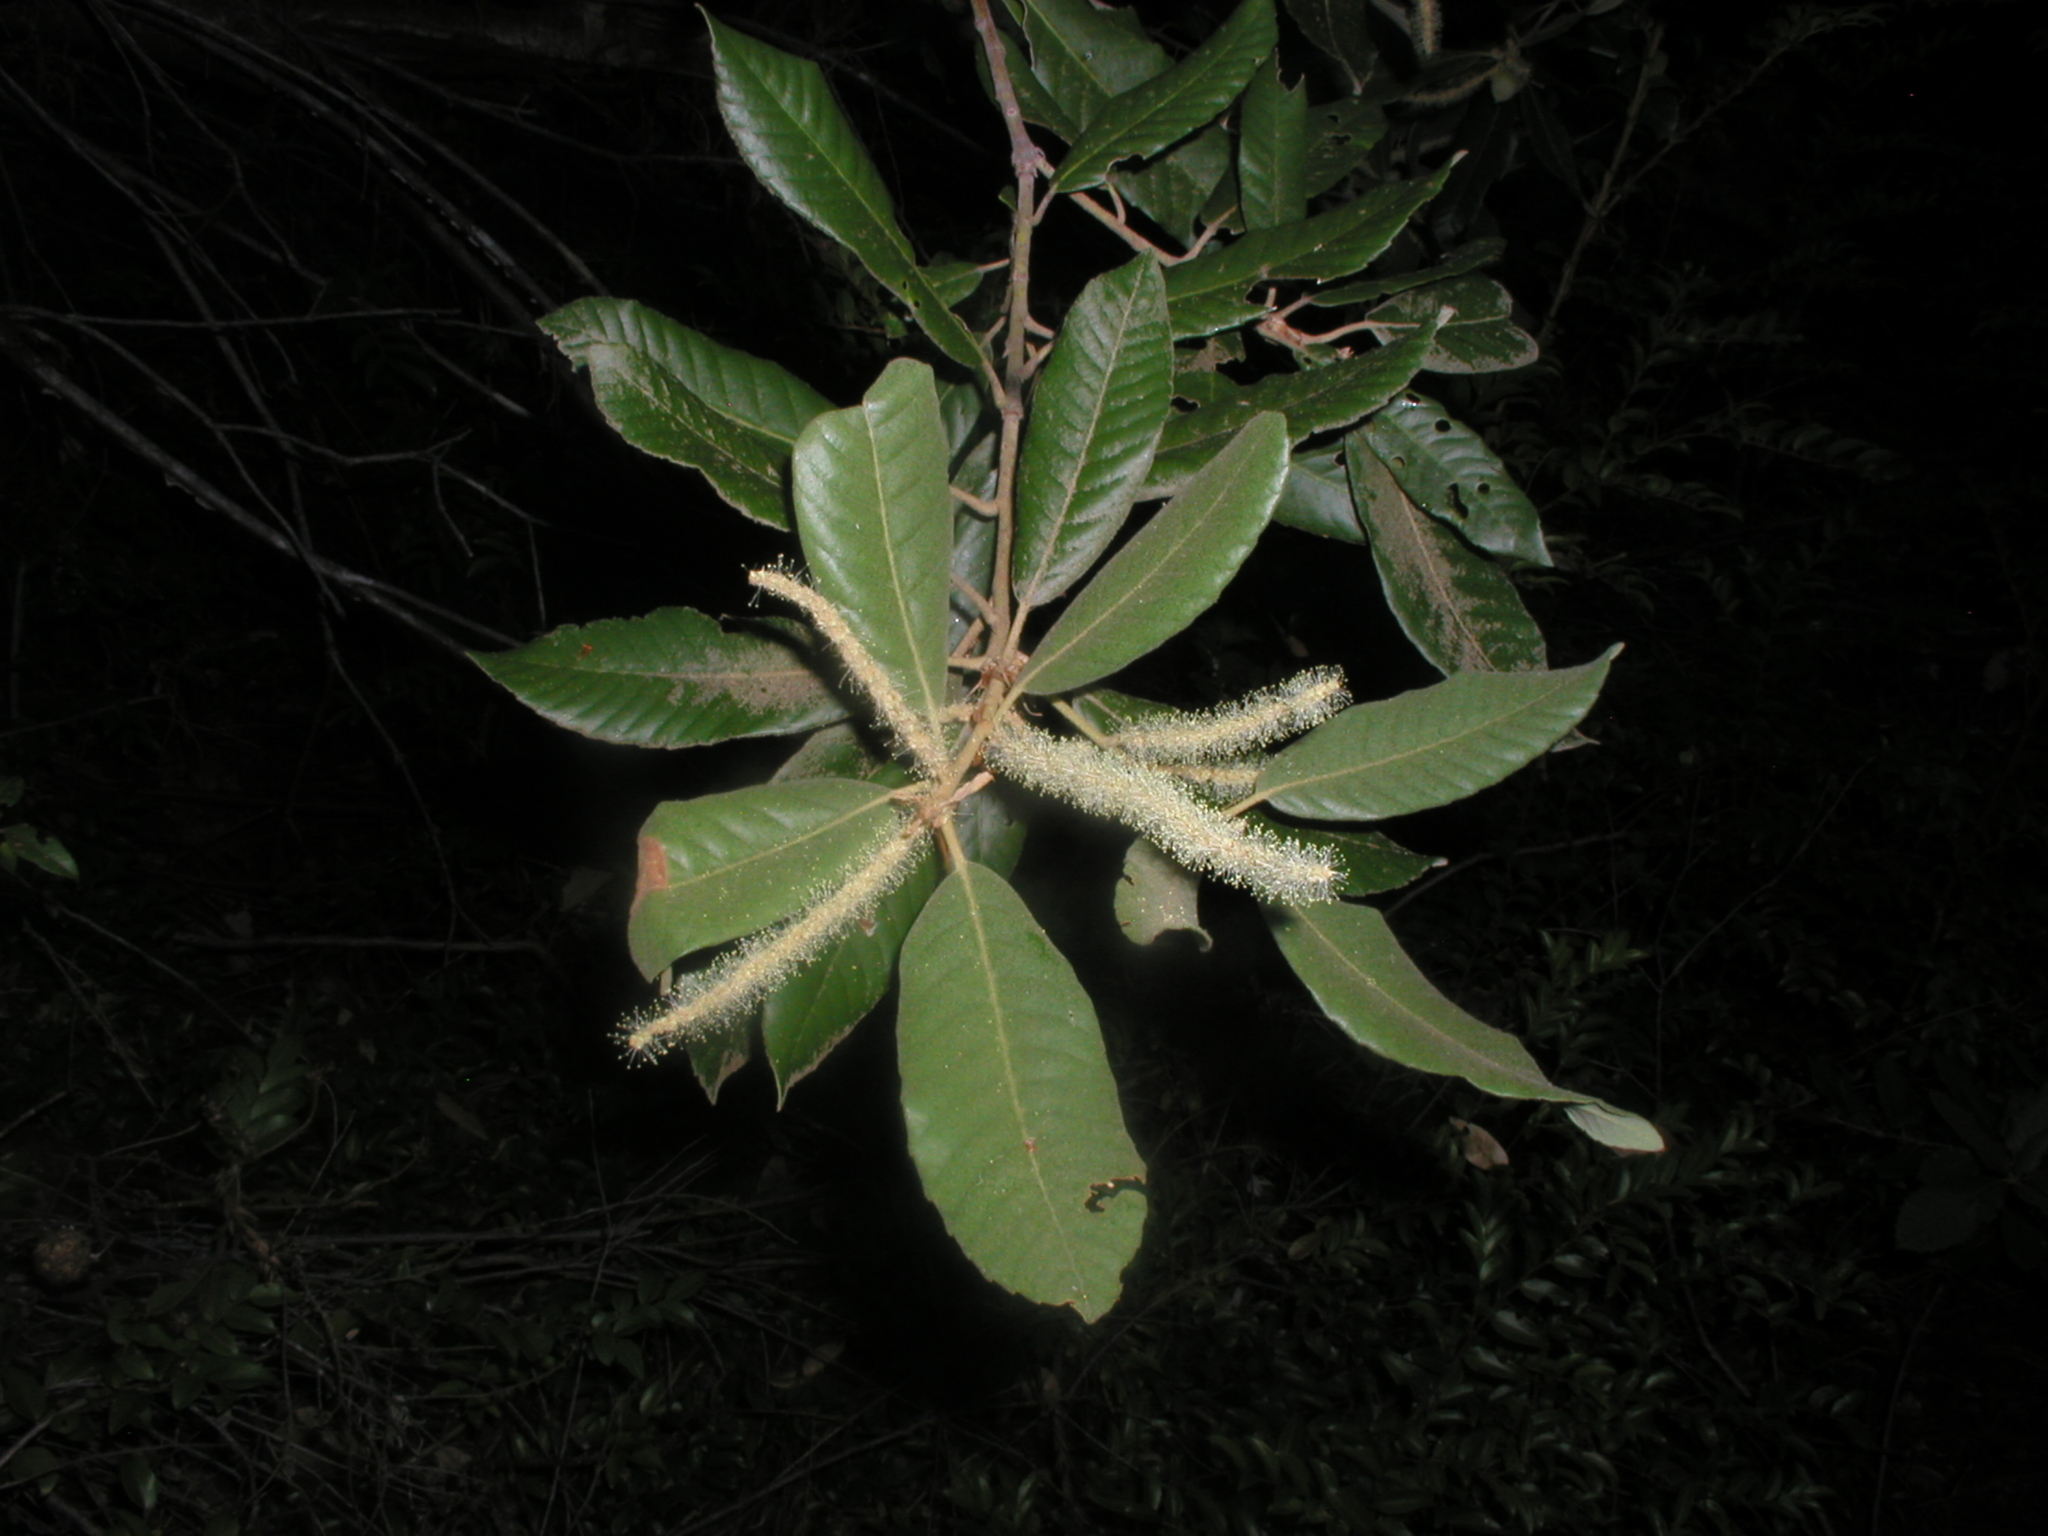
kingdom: Plantae
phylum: Tracheophyta
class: Magnoliopsida
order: Fagales
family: Fagaceae
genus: Notholithocarpus
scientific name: Notholithocarpus densiflorus
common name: Tan bark oak
